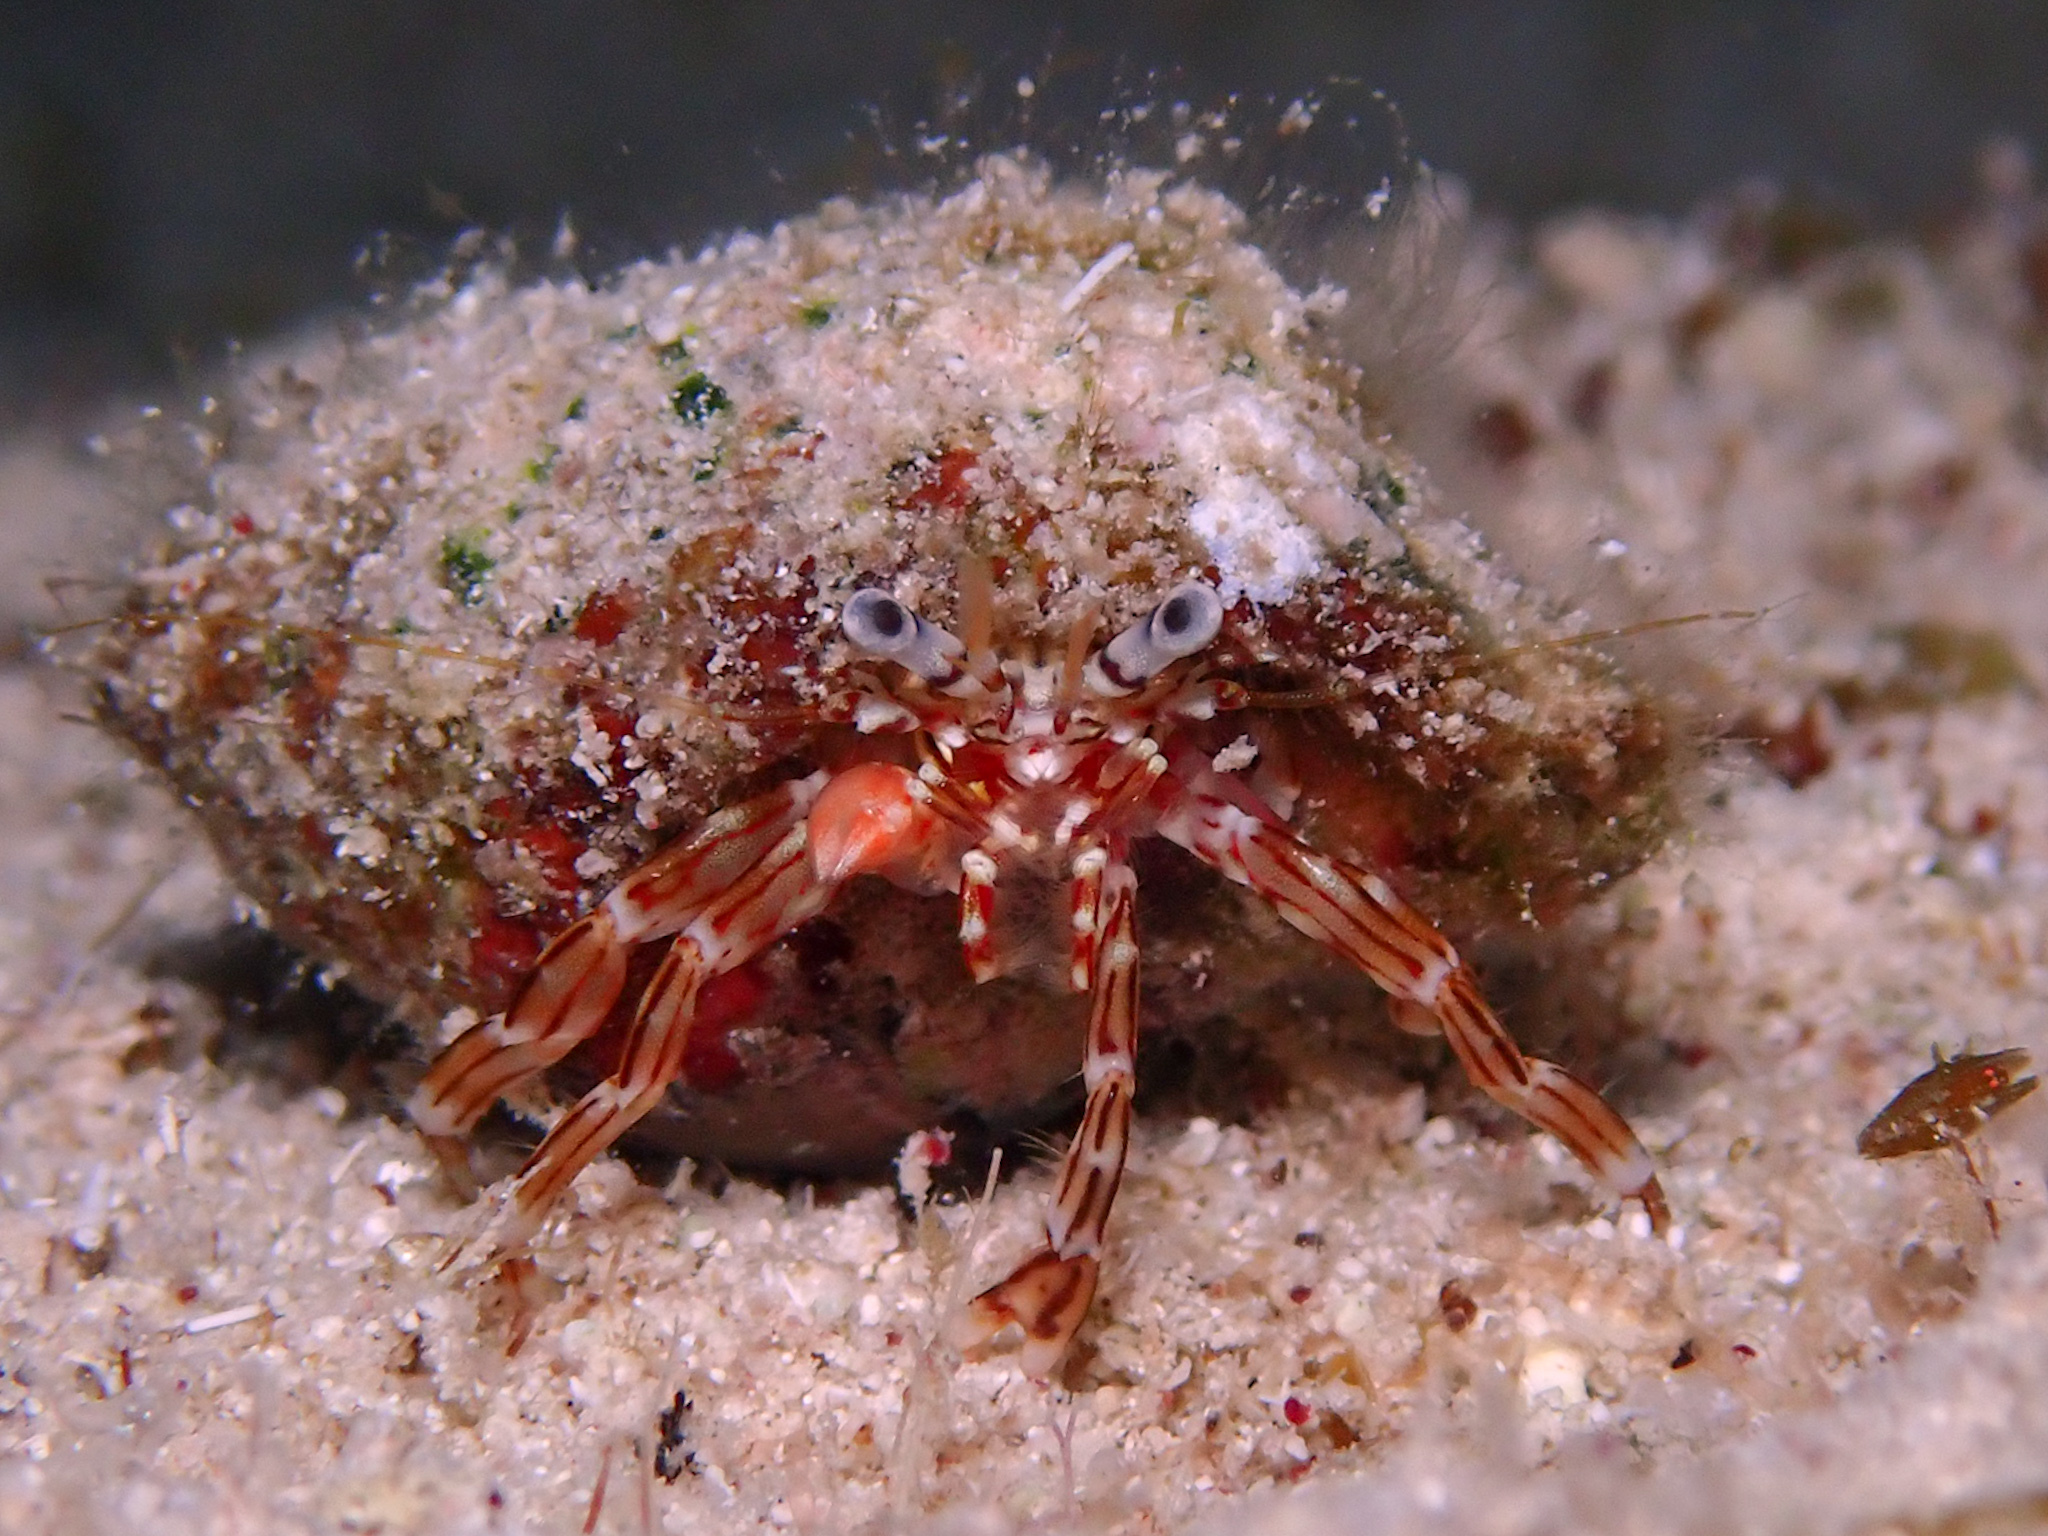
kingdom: Animalia
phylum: Arthropoda
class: Malacostraca
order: Decapoda
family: Paguridae
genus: Phimochirus
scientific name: Phimochirus holthuisi
